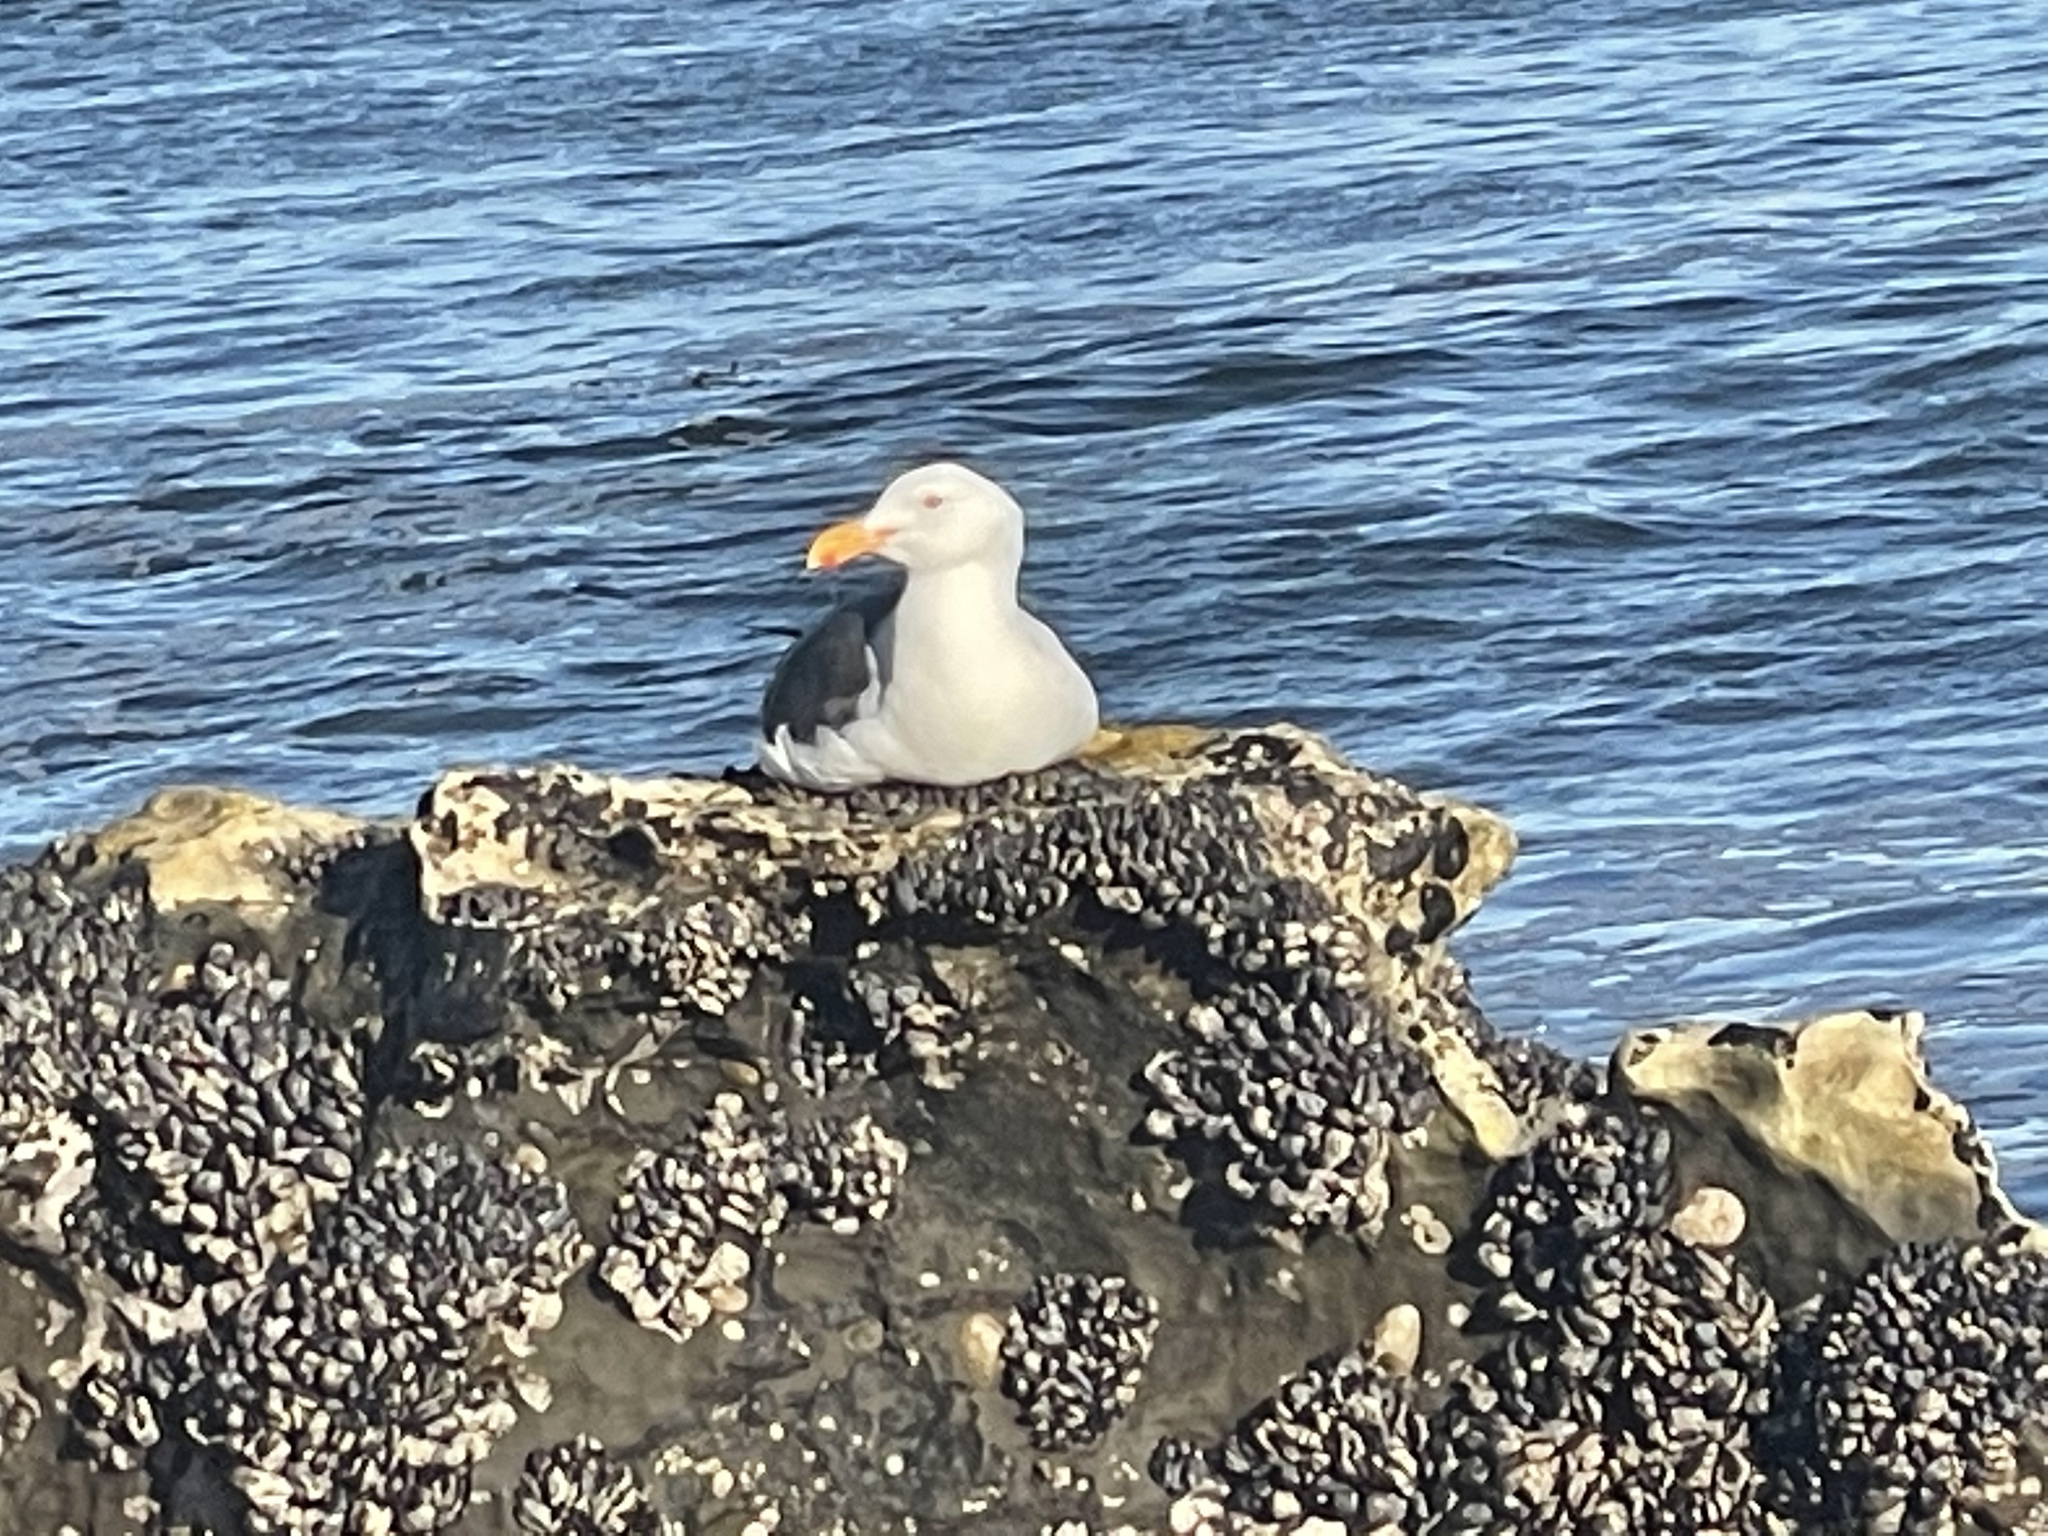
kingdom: Animalia
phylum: Chordata
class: Aves
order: Charadriiformes
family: Laridae
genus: Larus
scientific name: Larus occidentalis
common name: Western gull
